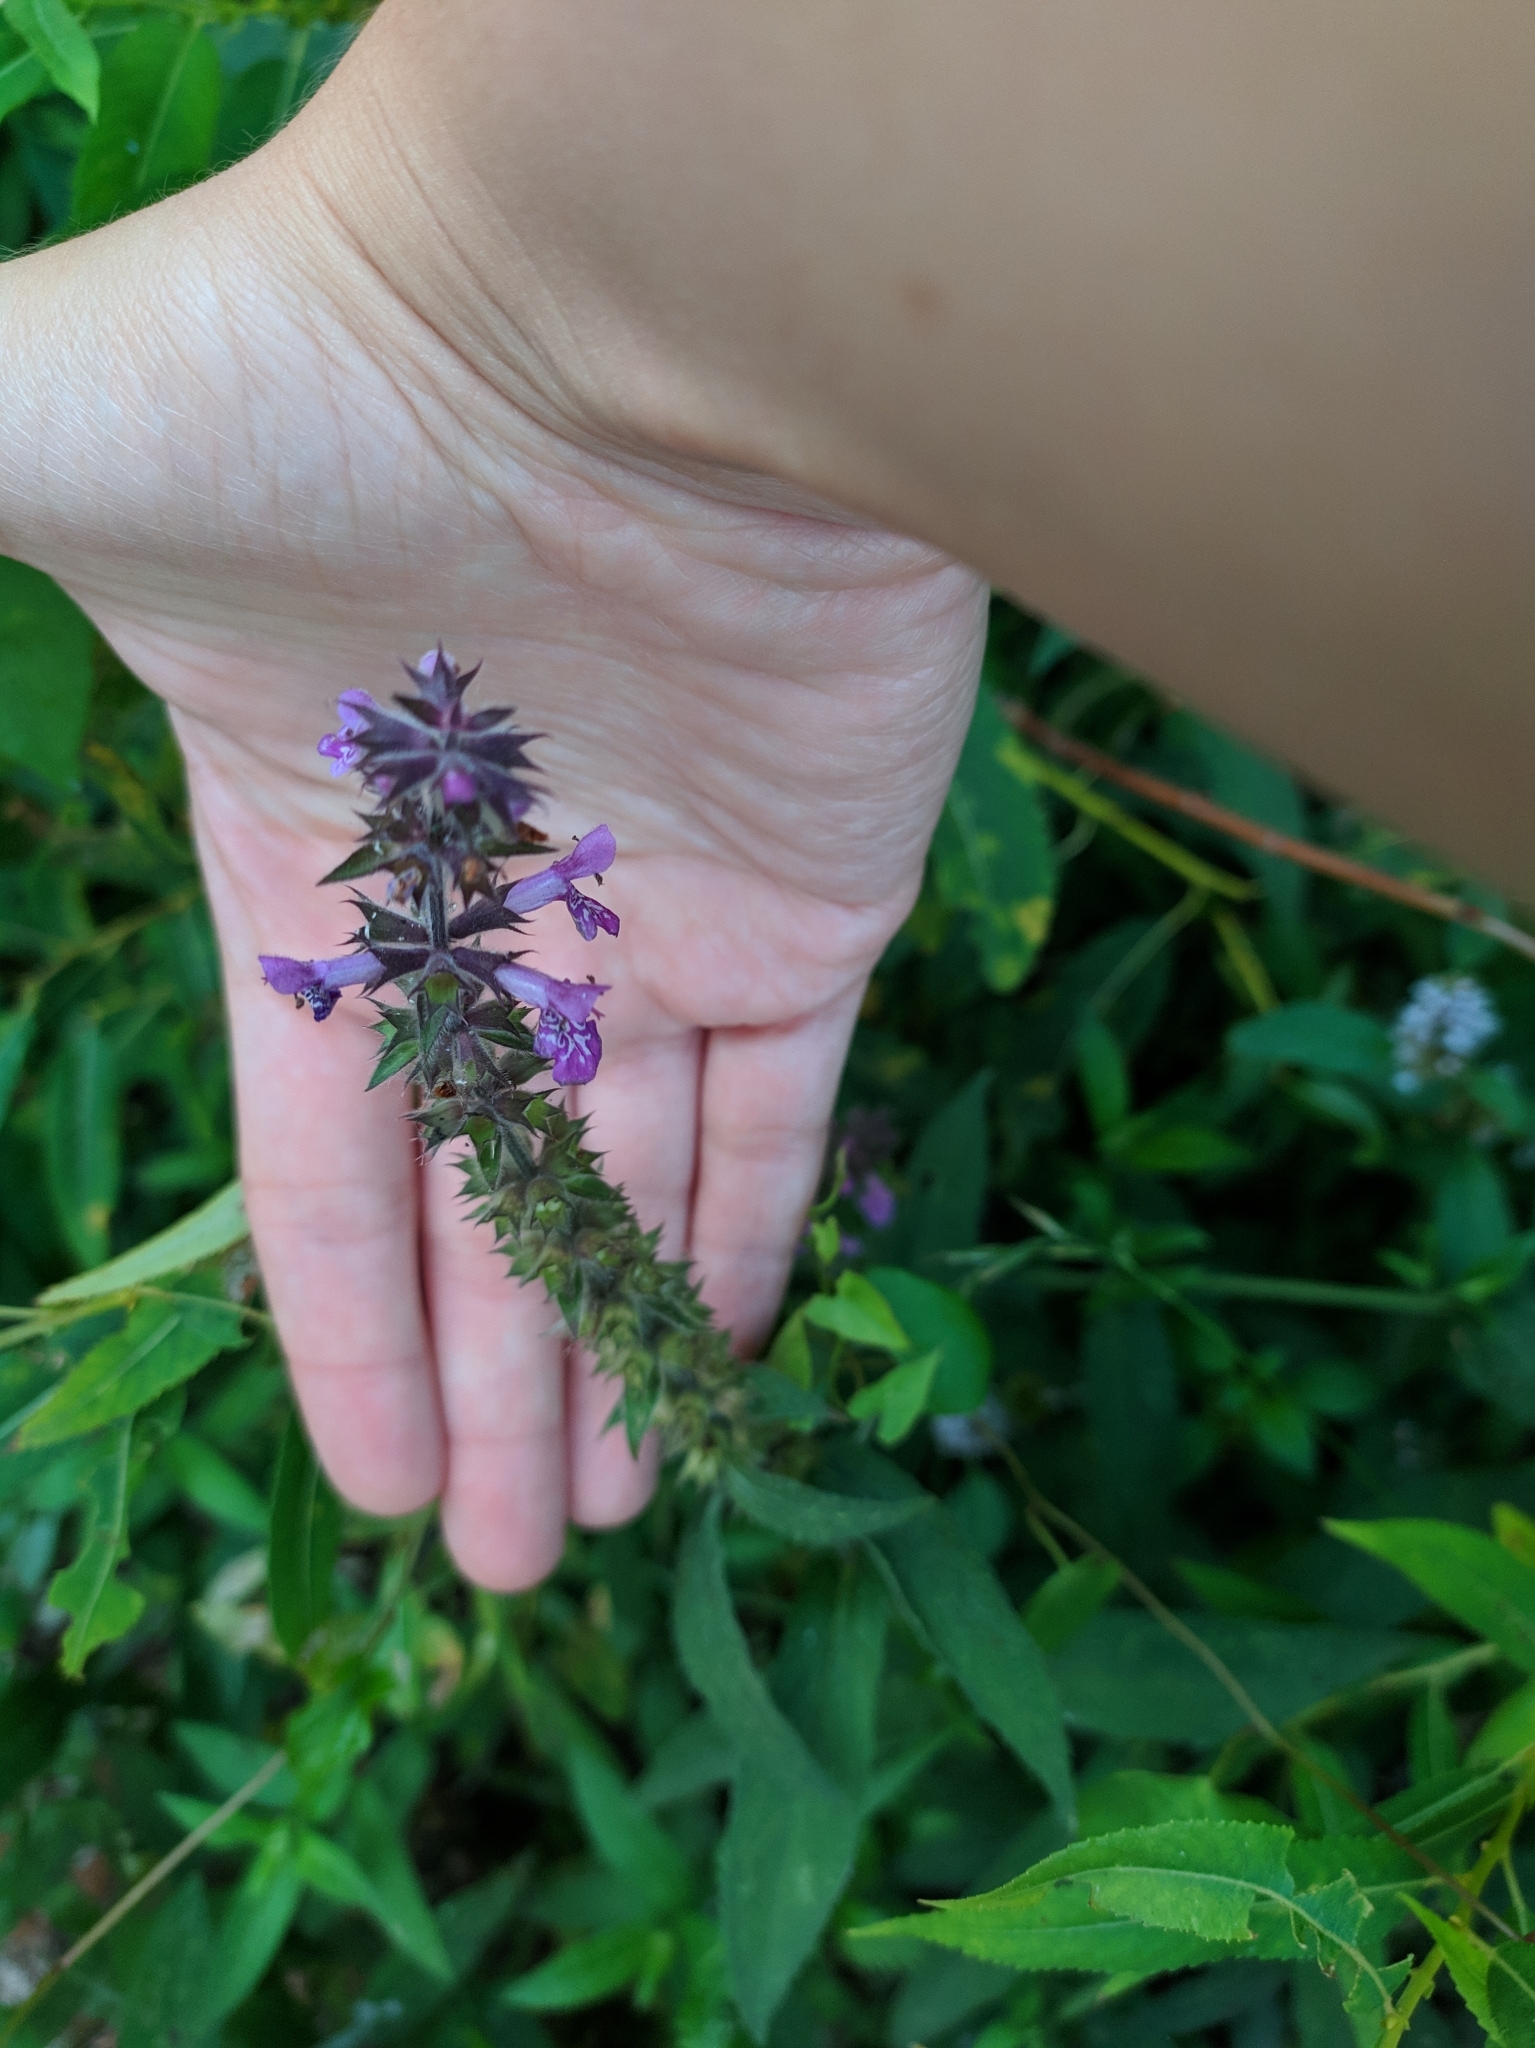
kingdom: Plantae
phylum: Tracheophyta
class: Magnoliopsida
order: Lamiales
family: Lamiaceae
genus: Stachys
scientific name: Stachys palustris
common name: Marsh woundwort
